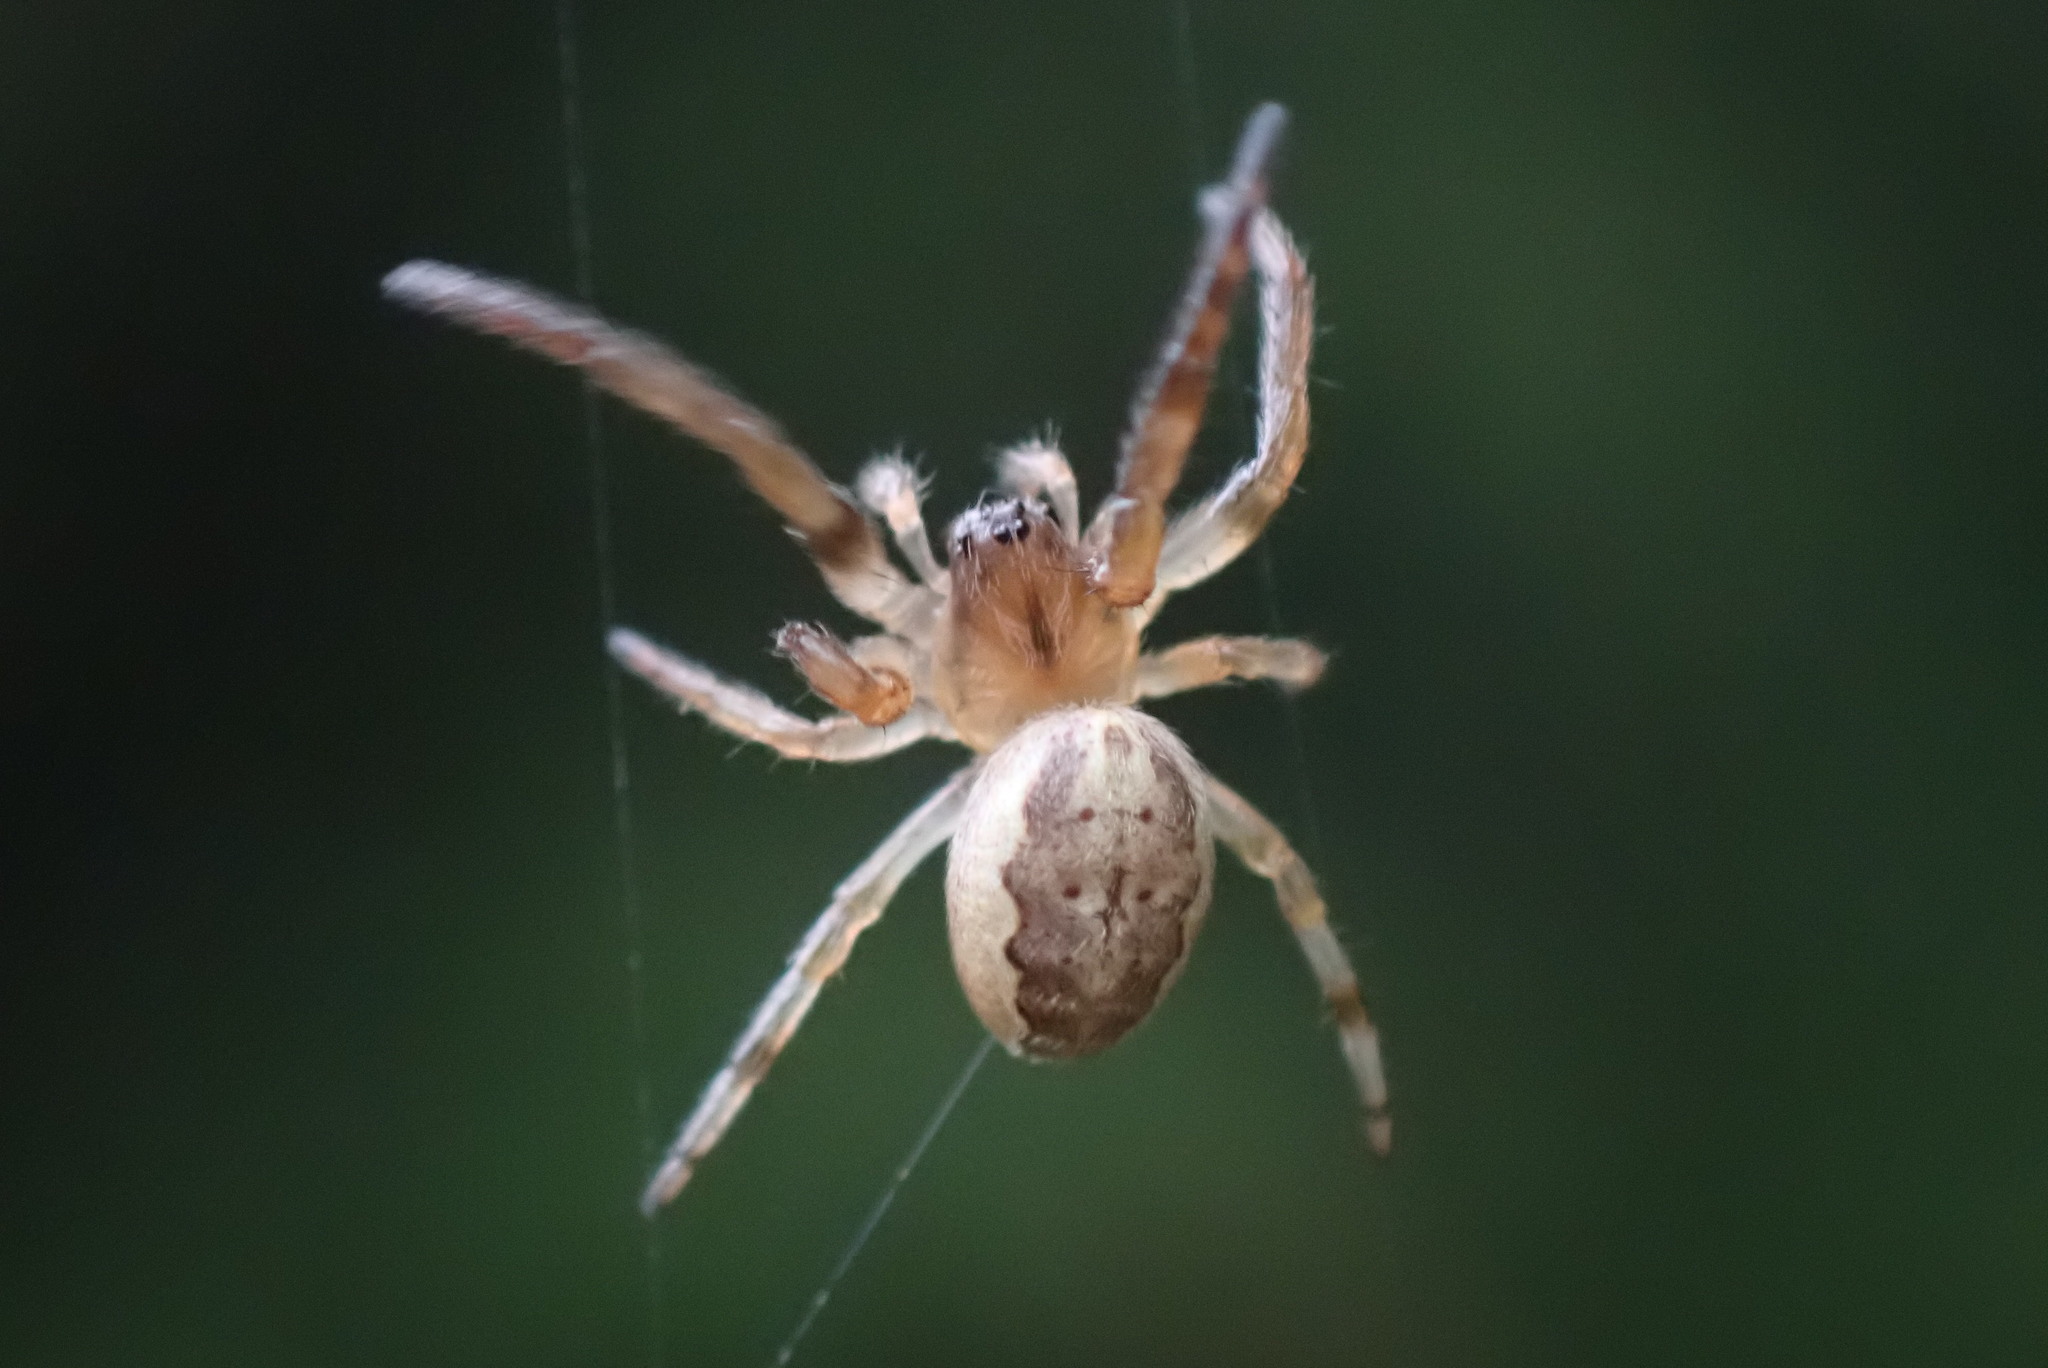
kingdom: Animalia
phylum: Arthropoda
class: Arachnida
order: Araneae
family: Araneidae
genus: Larinioides
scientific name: Larinioides cornutus
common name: Furrow orbweaver
